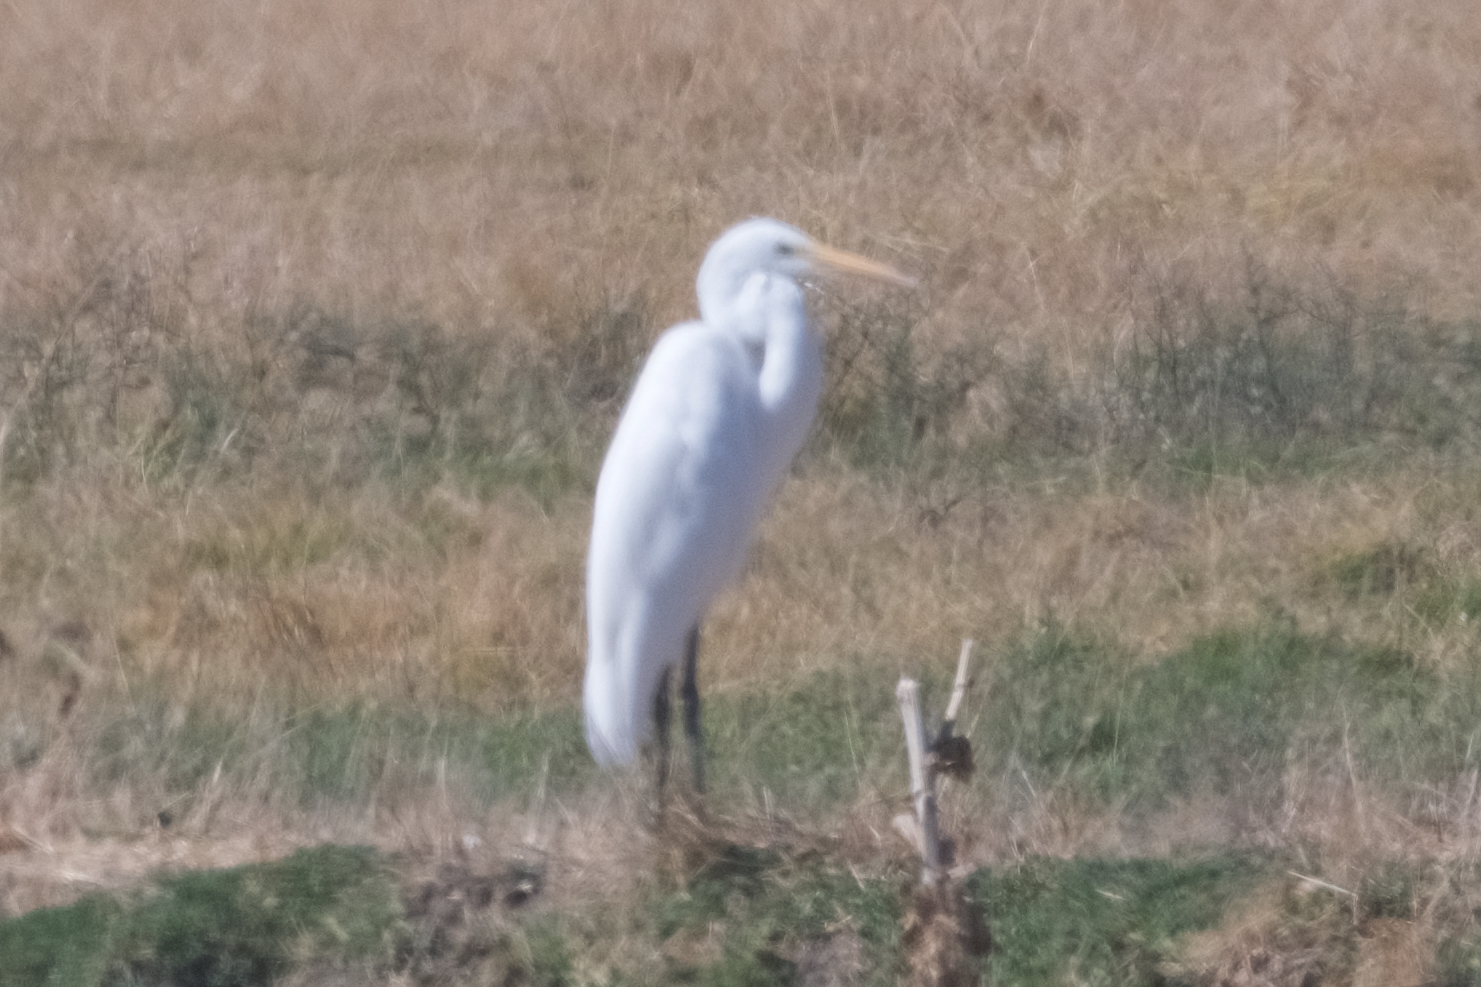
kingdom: Animalia
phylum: Chordata
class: Aves
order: Pelecaniformes
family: Ardeidae
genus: Ardea
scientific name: Ardea alba
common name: Great egret
